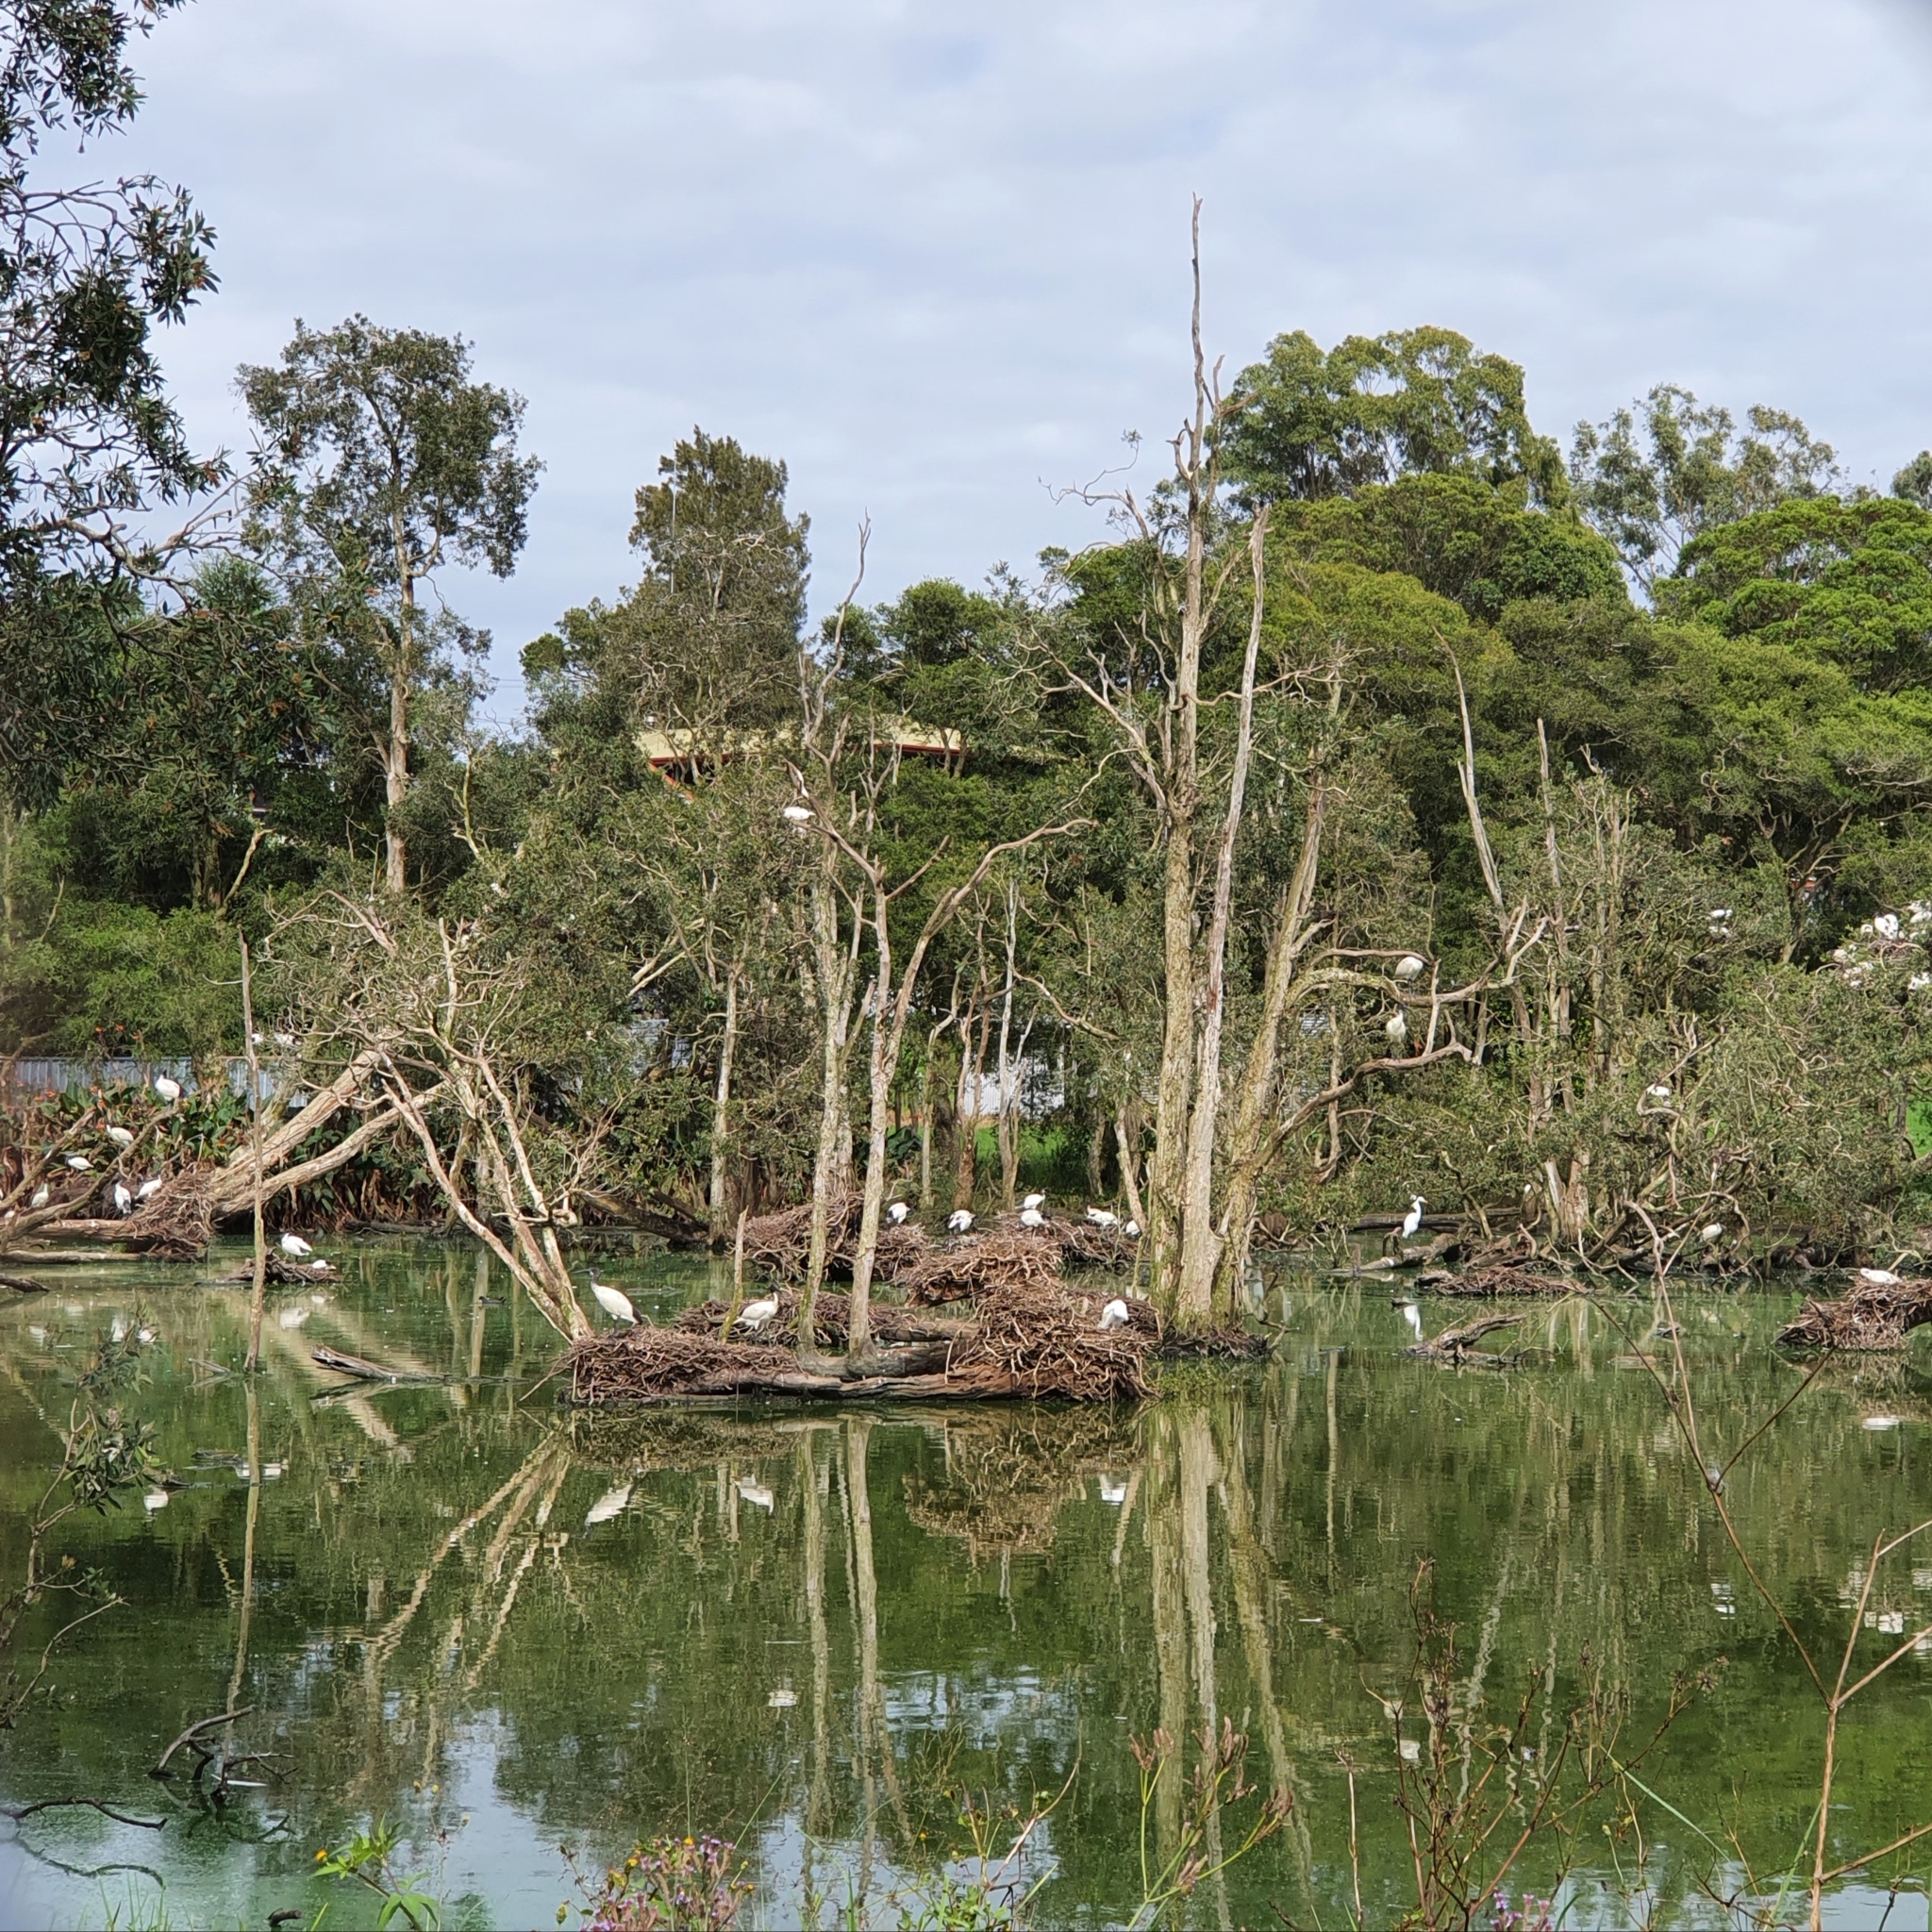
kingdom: Animalia
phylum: Chordata
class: Aves
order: Pelecaniformes
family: Threskiornithidae
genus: Threskiornis
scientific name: Threskiornis molucca
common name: Australian white ibis
